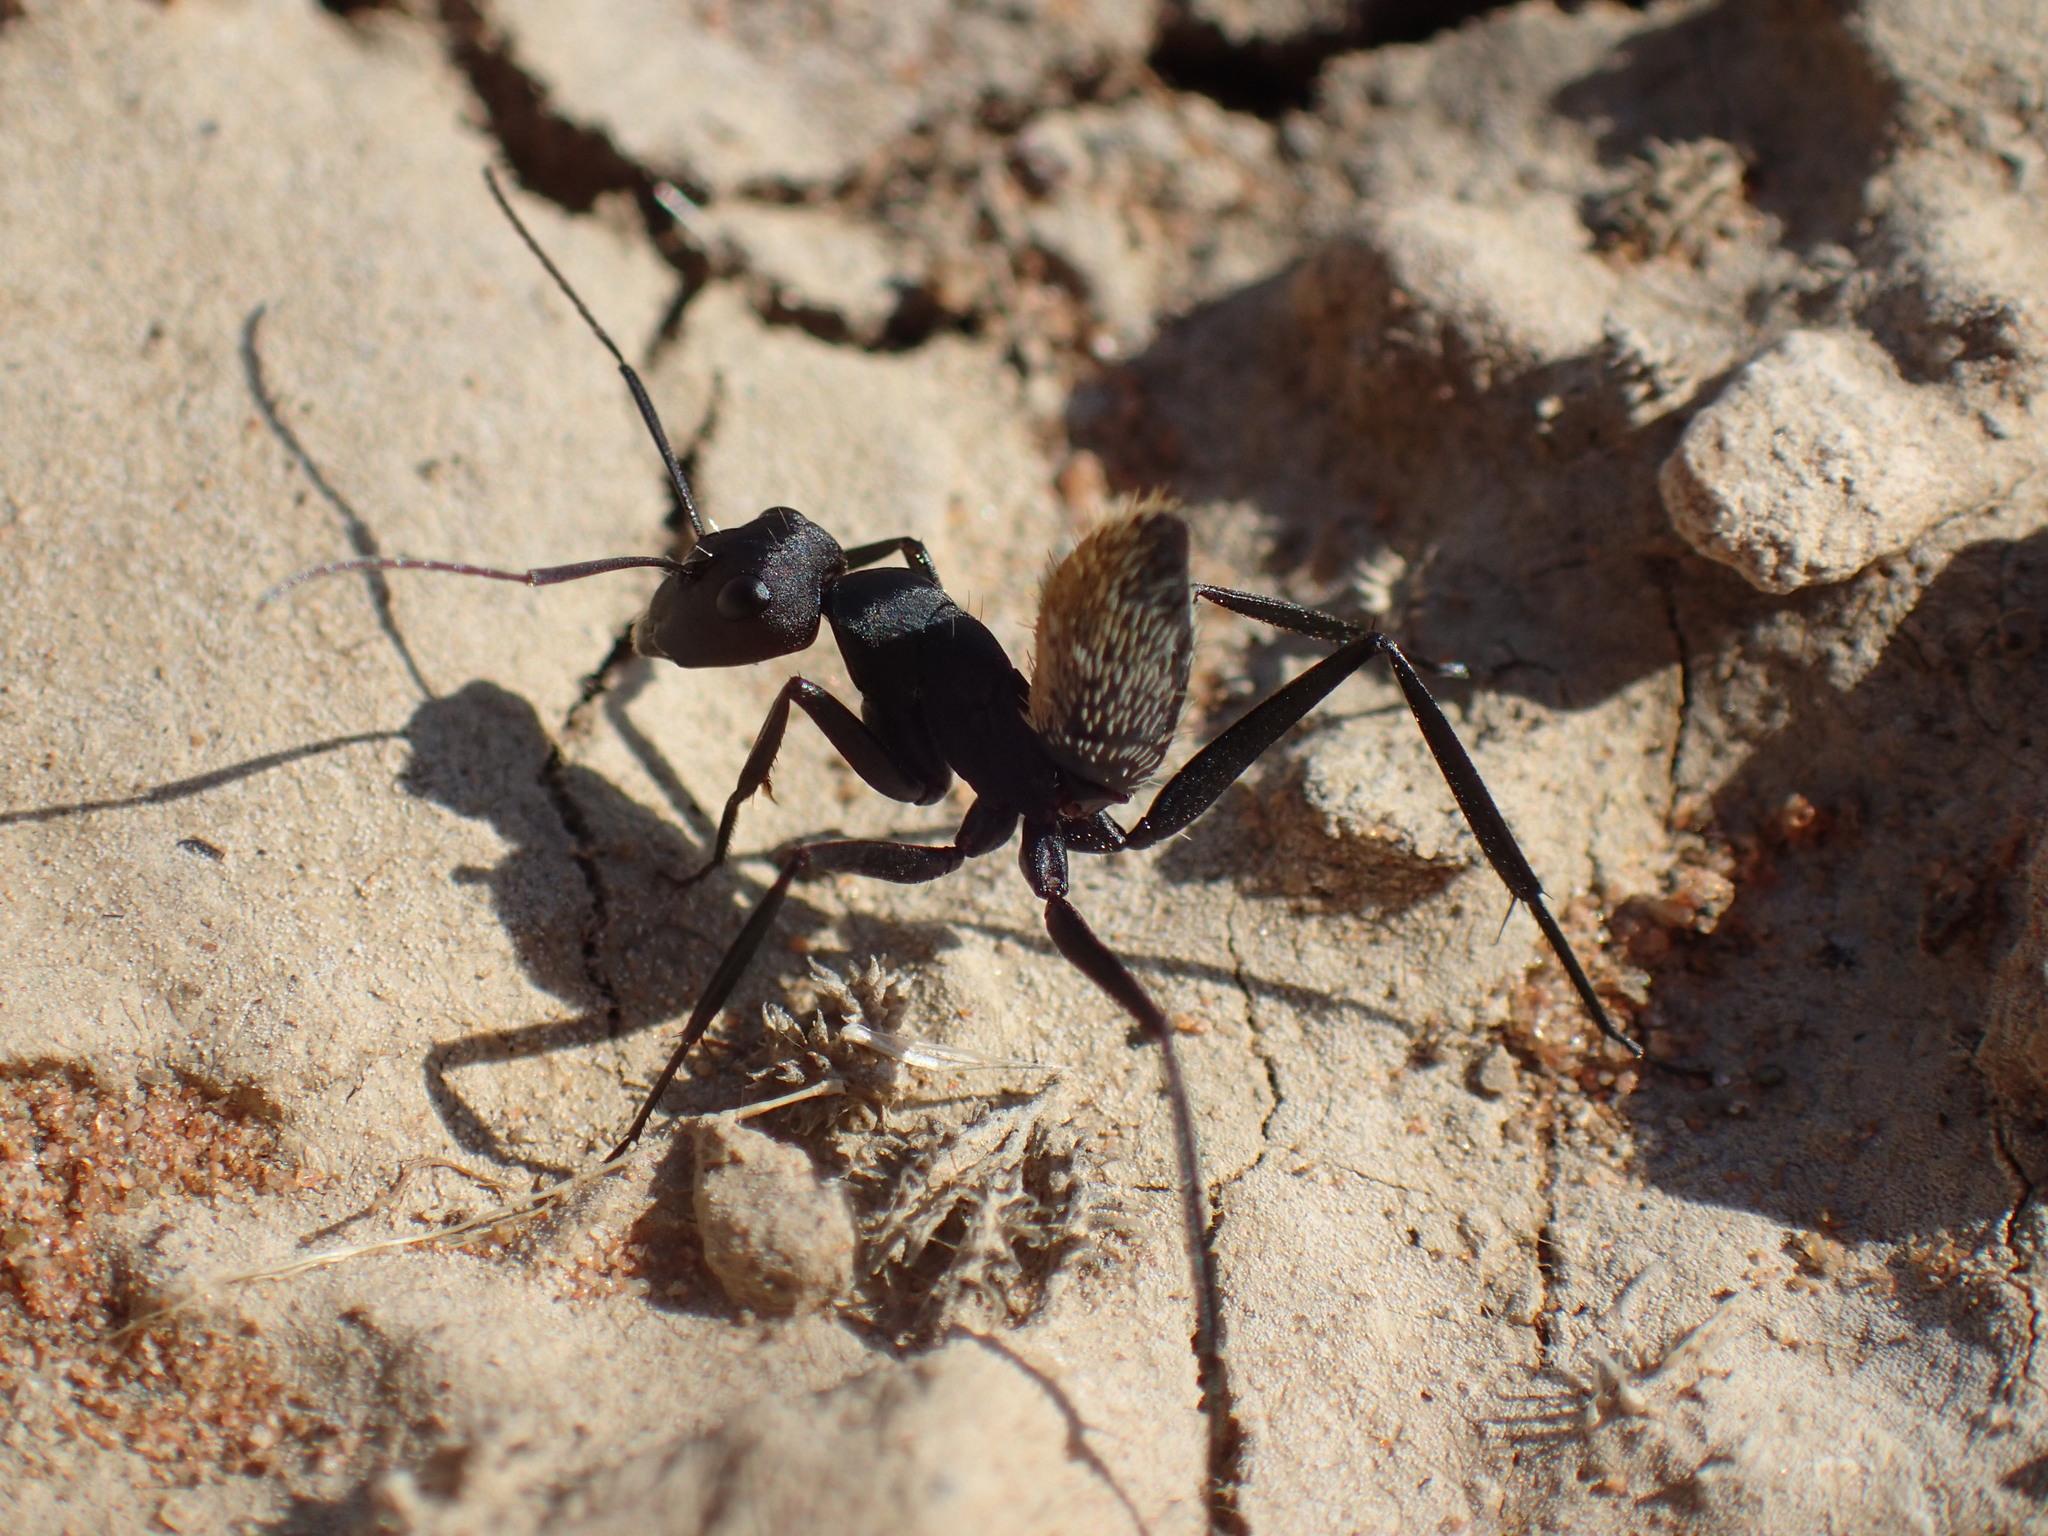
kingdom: Animalia
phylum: Arthropoda
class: Insecta
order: Hymenoptera
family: Formicidae
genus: Camponotus
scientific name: Camponotus fulvopilosus
